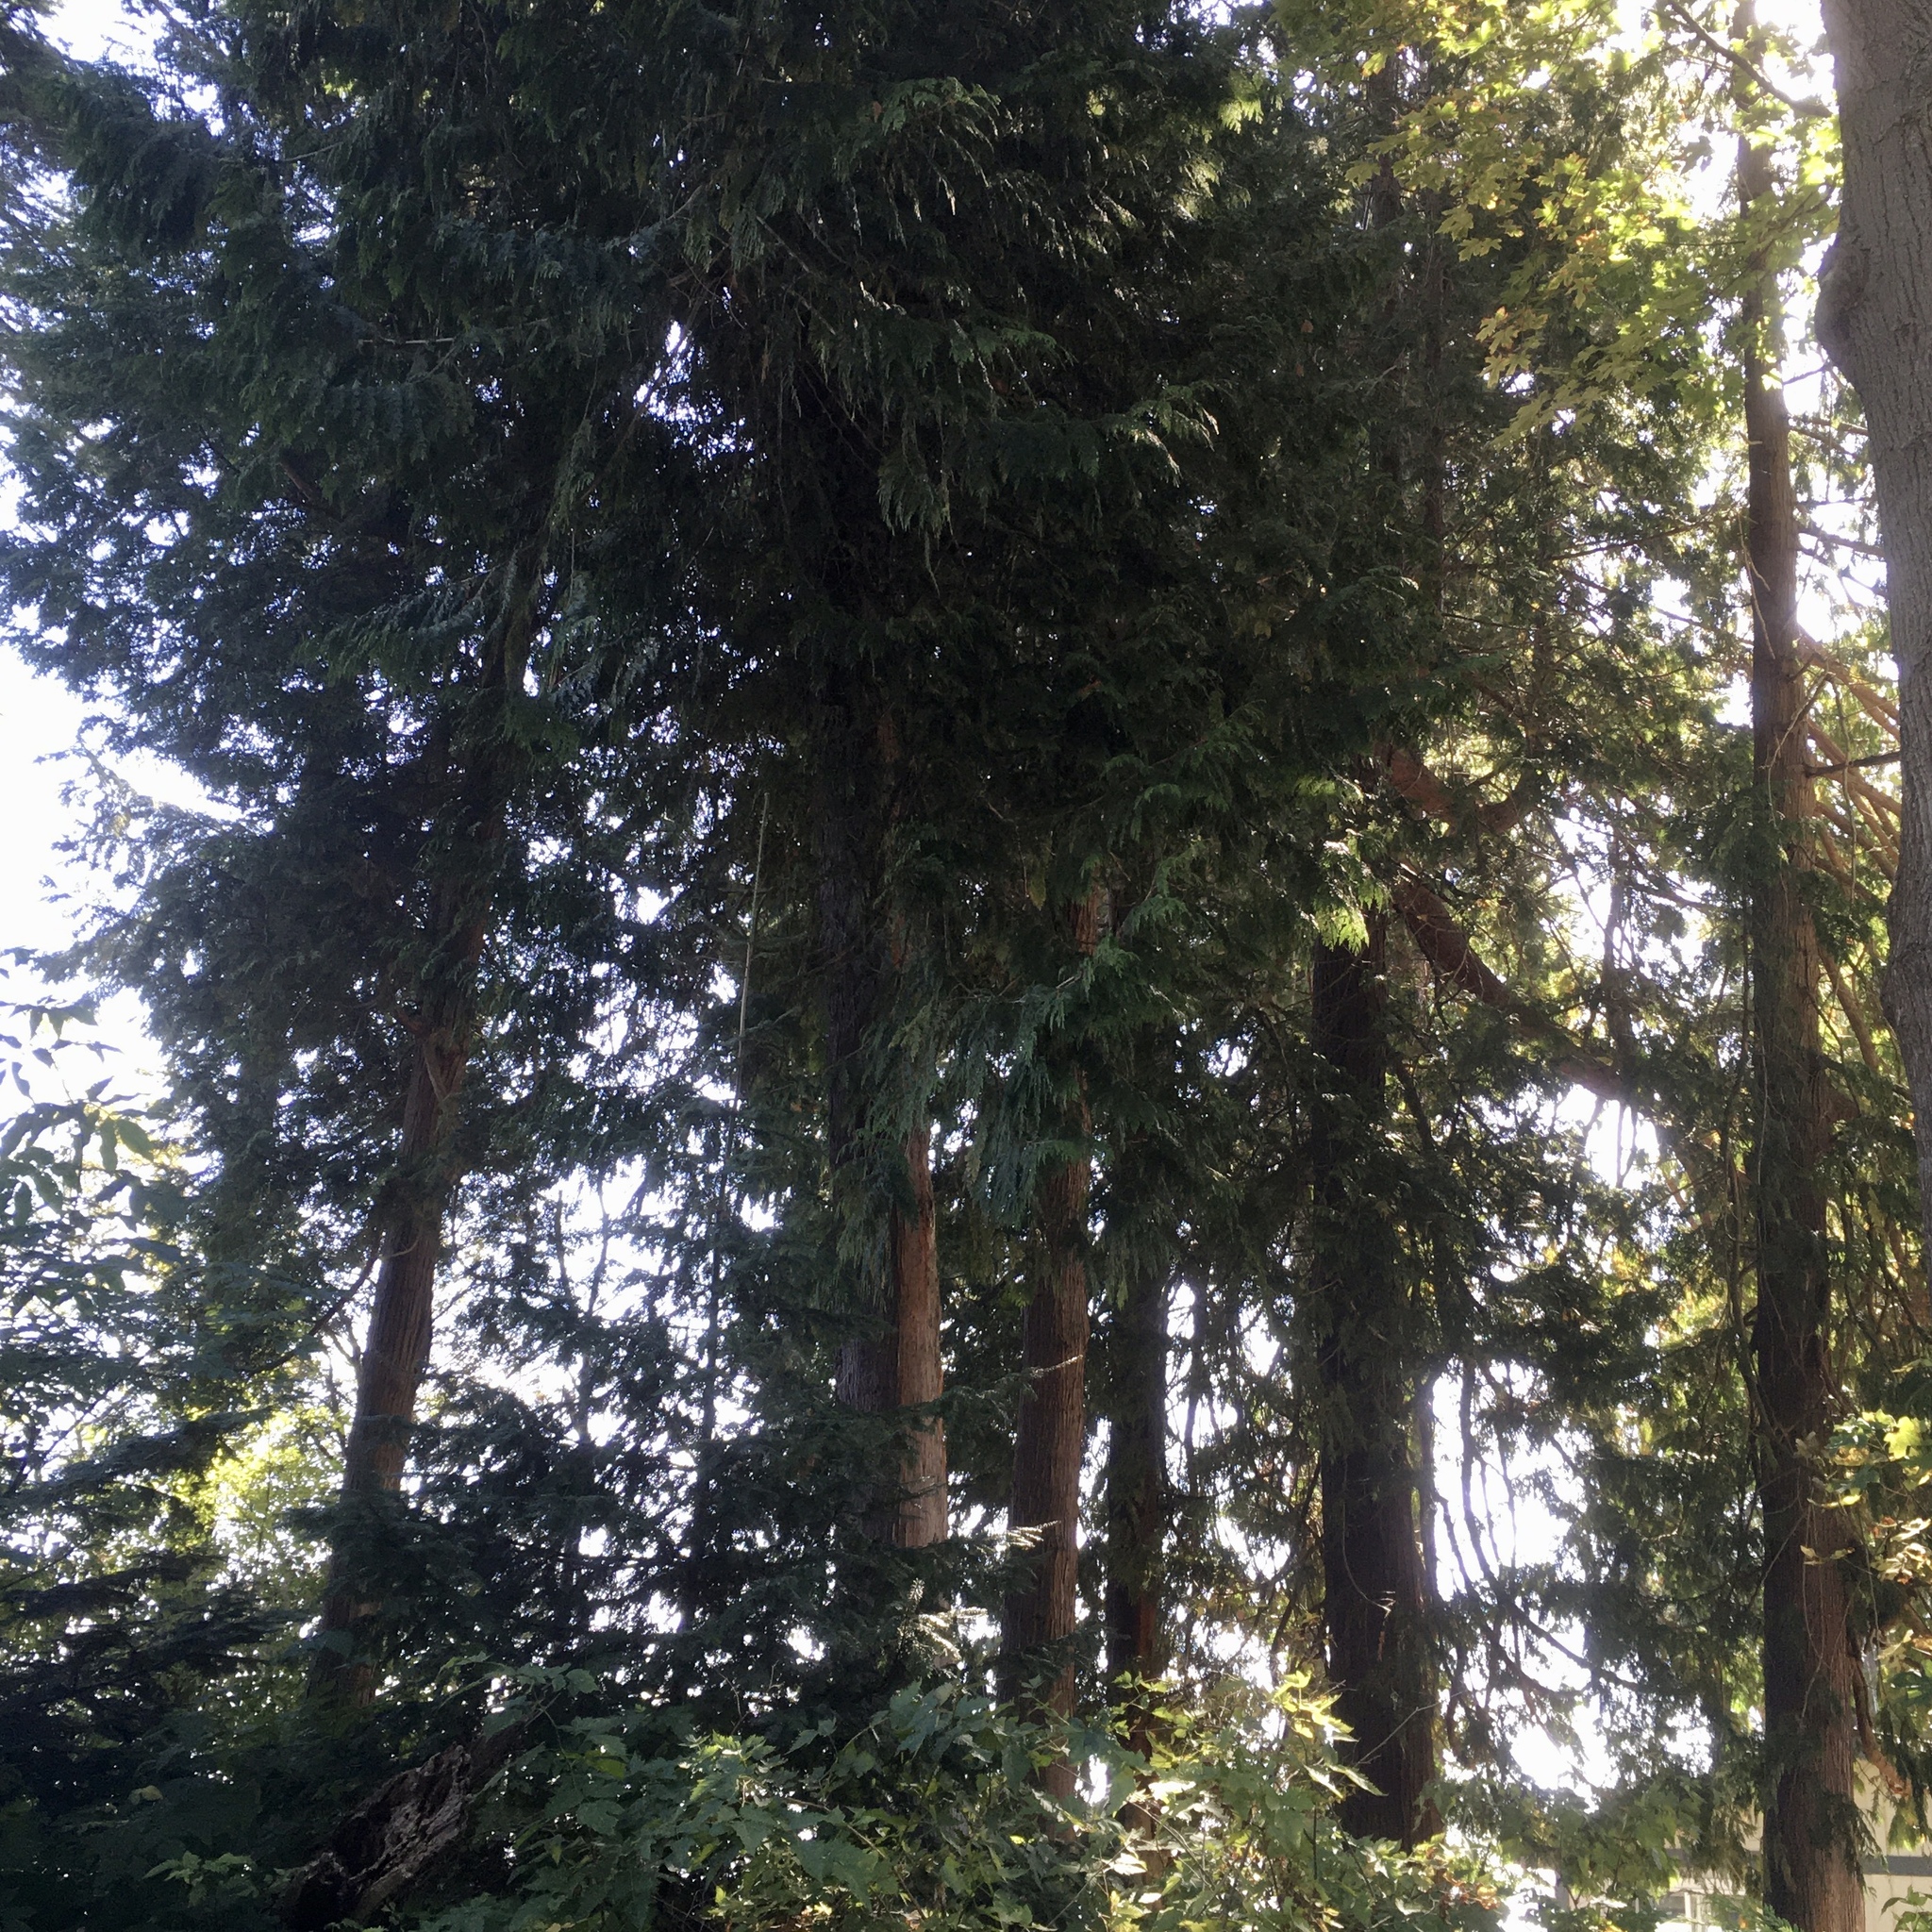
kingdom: Plantae
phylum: Tracheophyta
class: Pinopsida
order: Pinales
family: Cupressaceae
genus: Thuja
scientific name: Thuja plicata
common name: Western red-cedar
